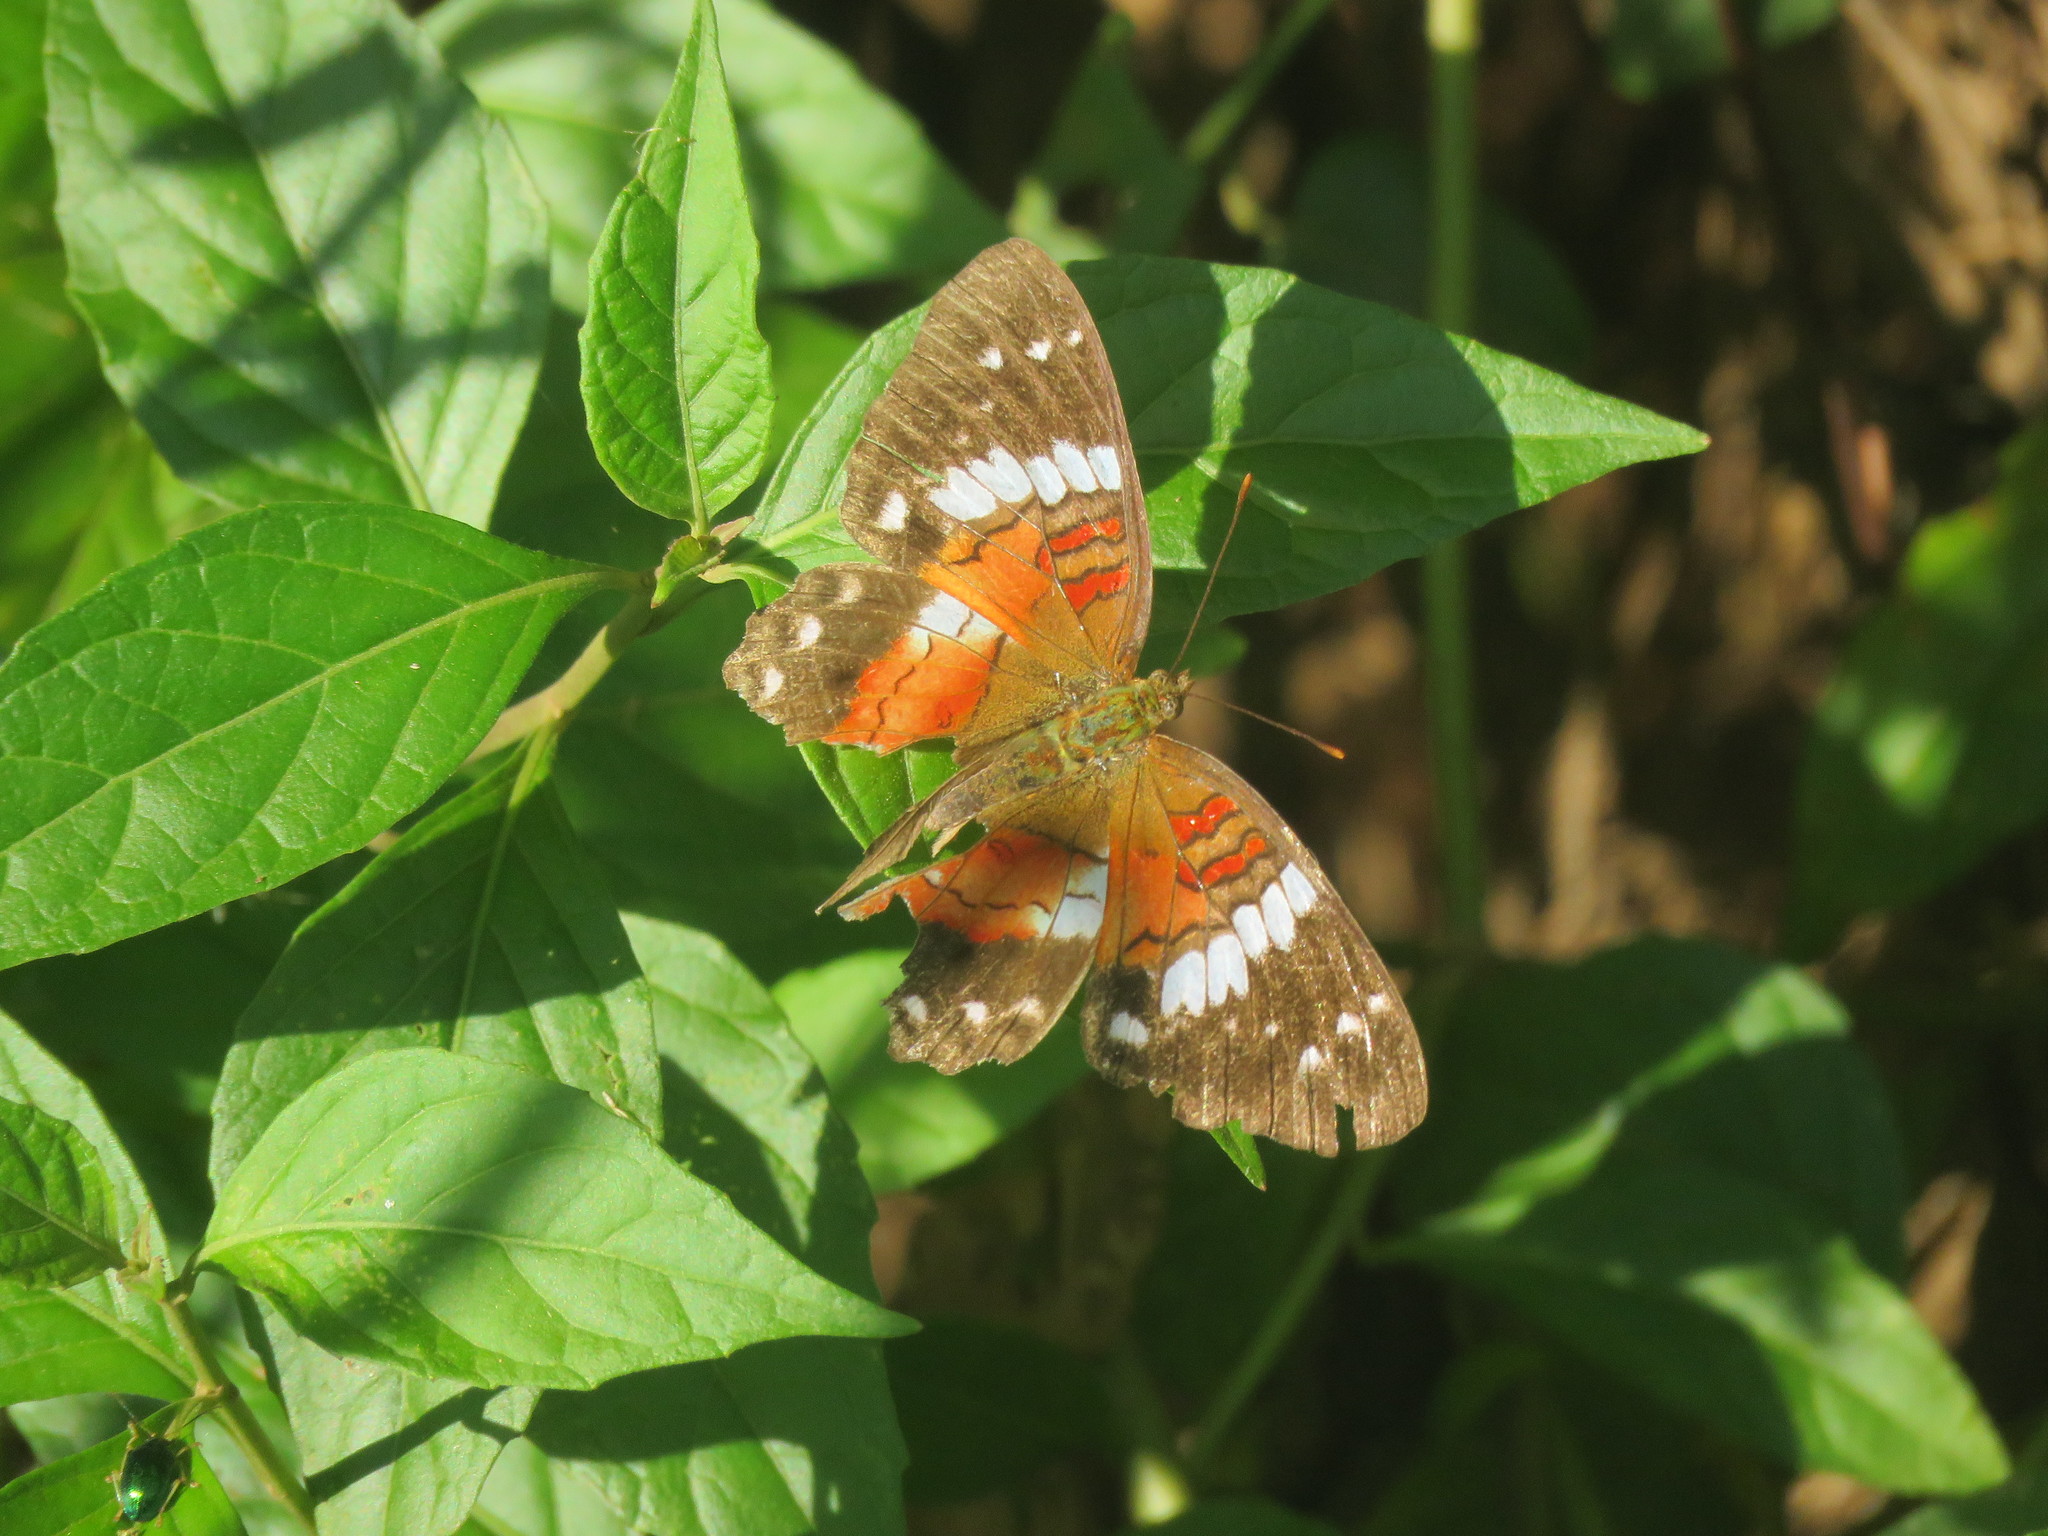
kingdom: Animalia
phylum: Arthropoda
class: Insecta
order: Lepidoptera
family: Nymphalidae
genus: Anartia
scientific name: Anartia amathea
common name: Red peacock
